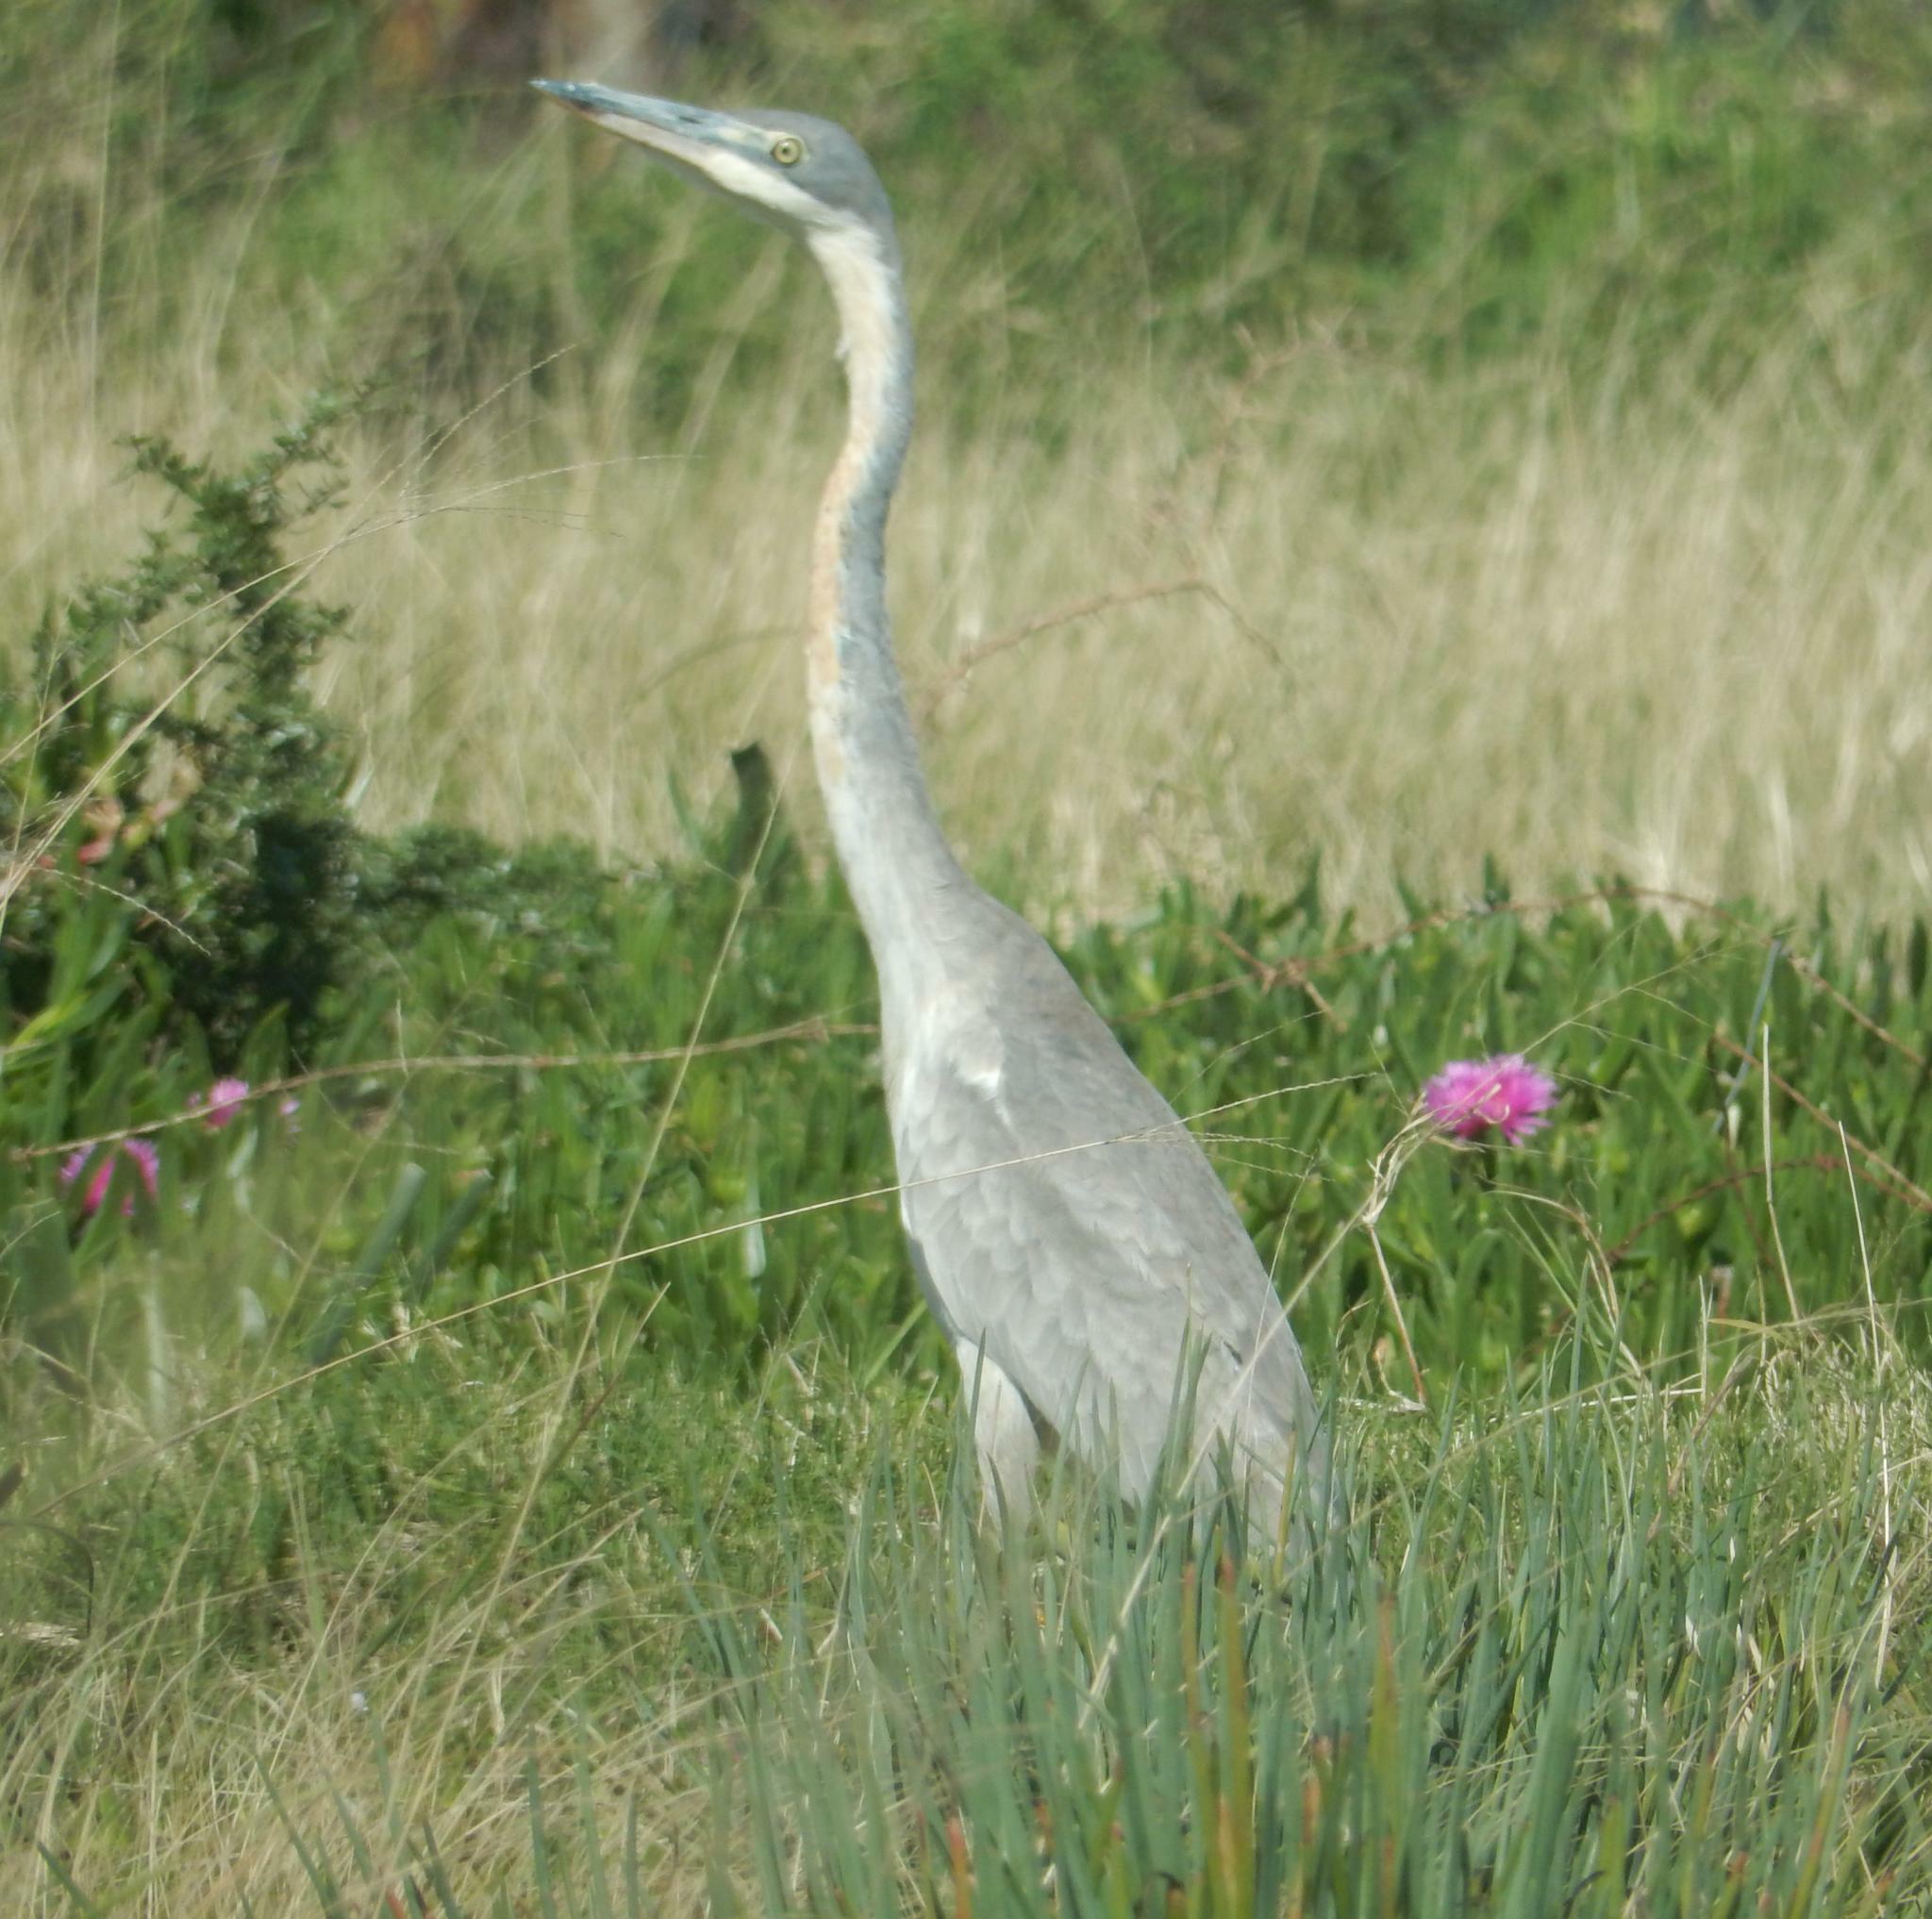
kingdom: Animalia
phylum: Chordata
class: Aves
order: Pelecaniformes
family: Ardeidae
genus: Ardea
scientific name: Ardea melanocephala
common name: Black-headed heron
